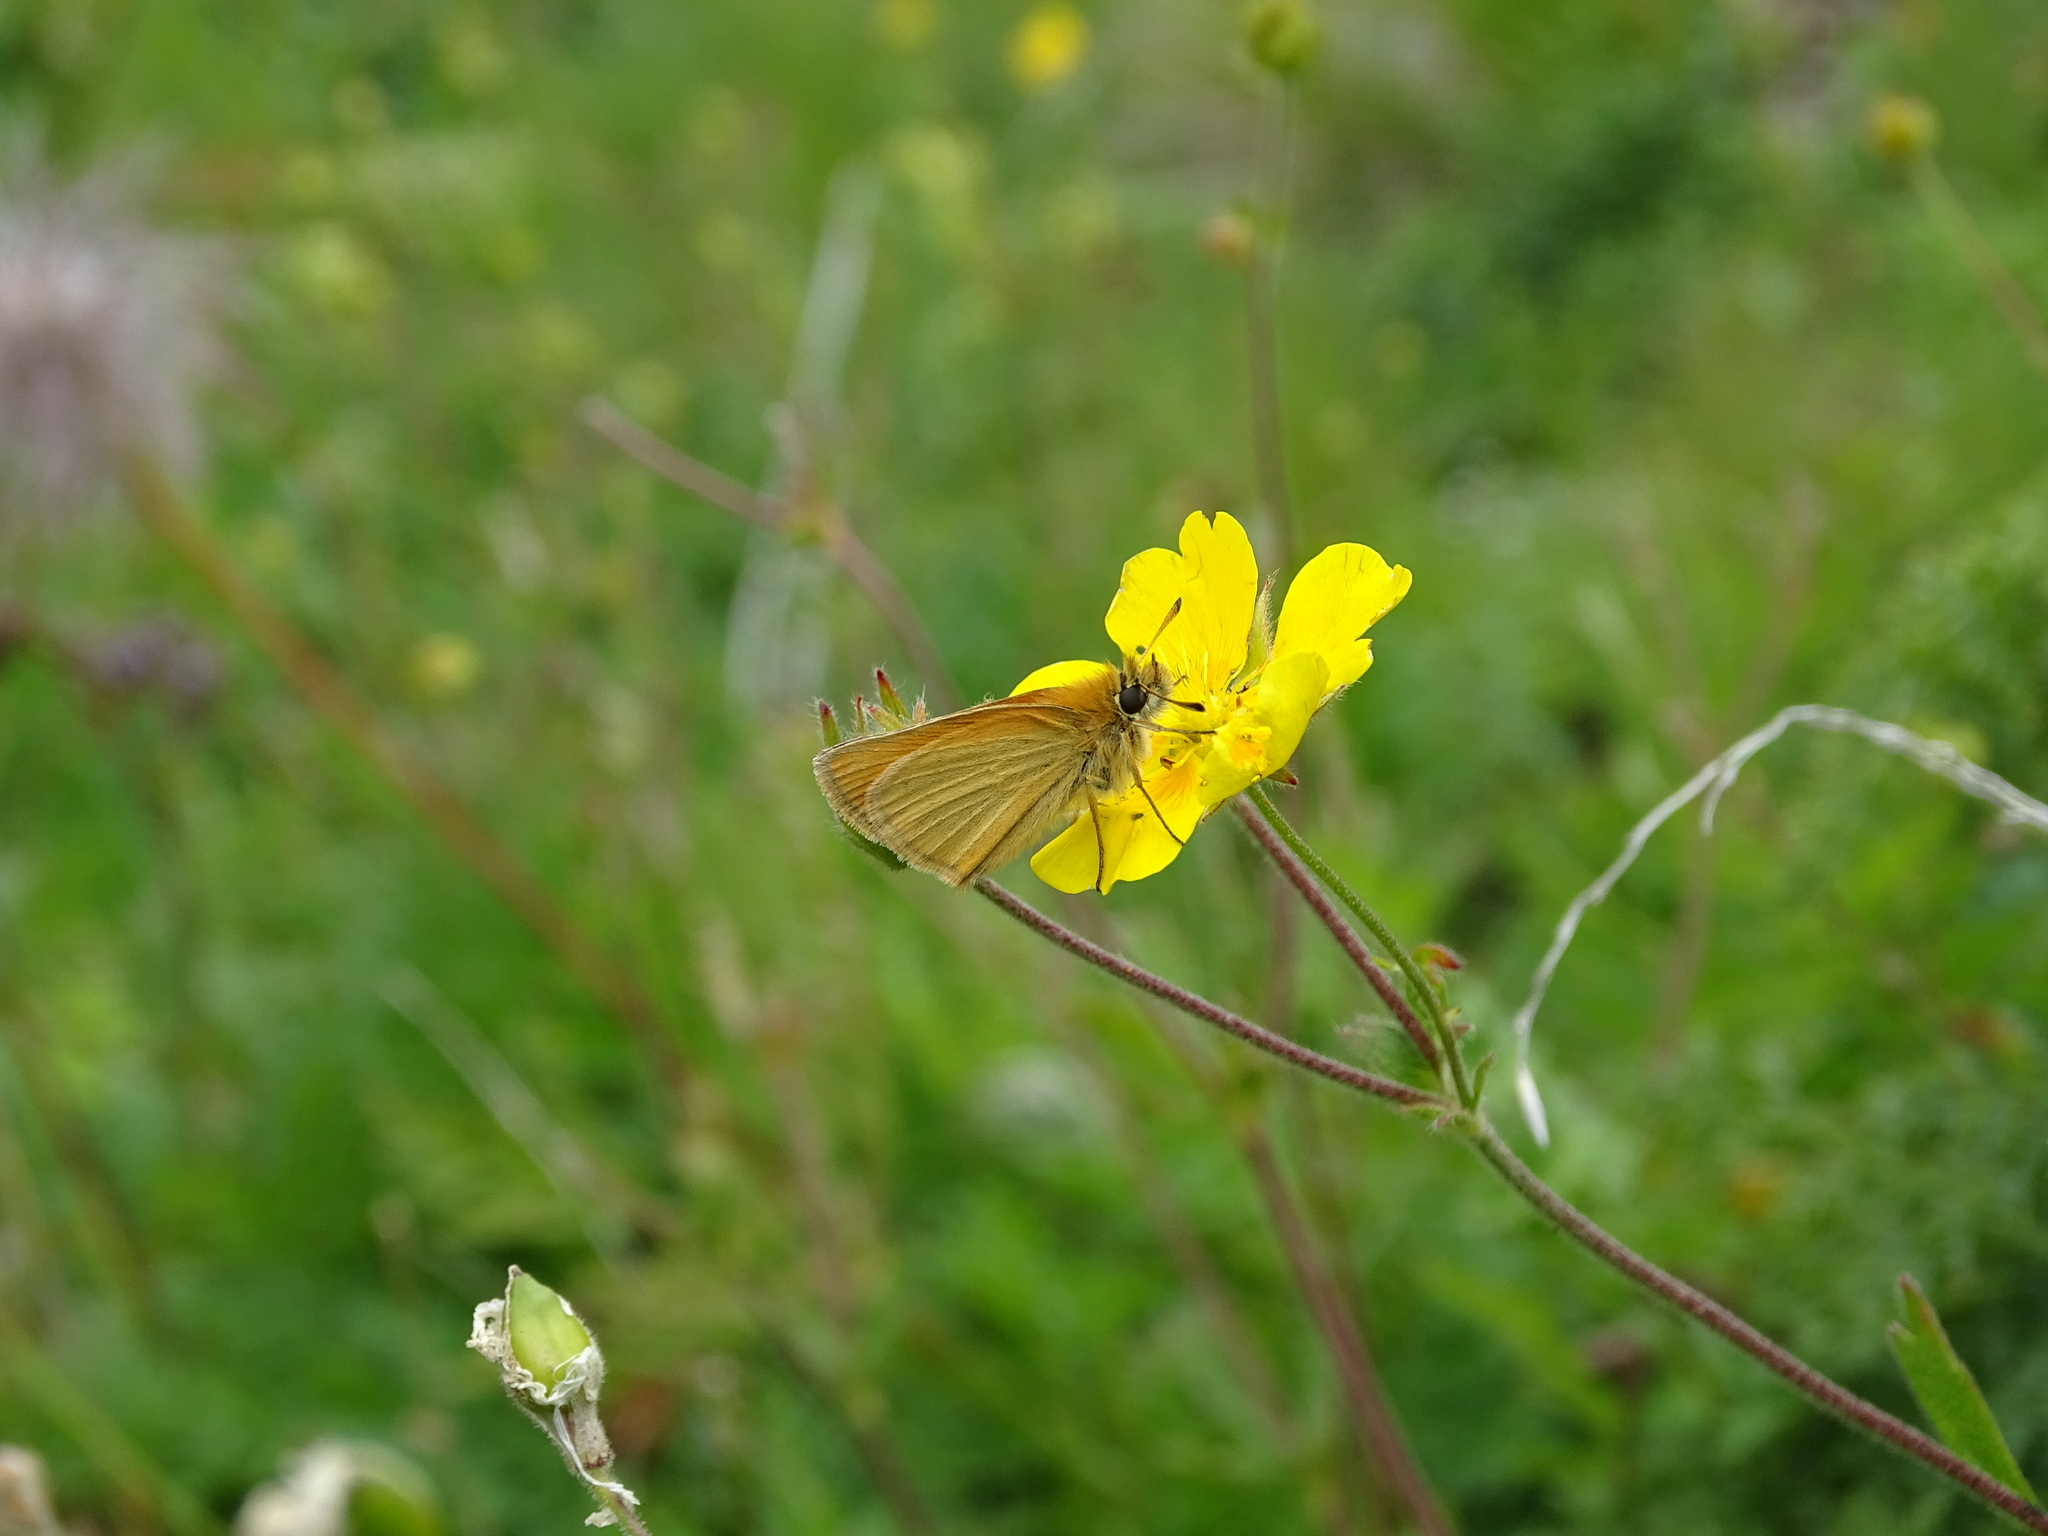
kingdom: Animalia
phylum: Arthropoda
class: Insecta
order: Lepidoptera
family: Hesperiidae
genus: Thymelicus
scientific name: Thymelicus lineola
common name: Essex skipper
